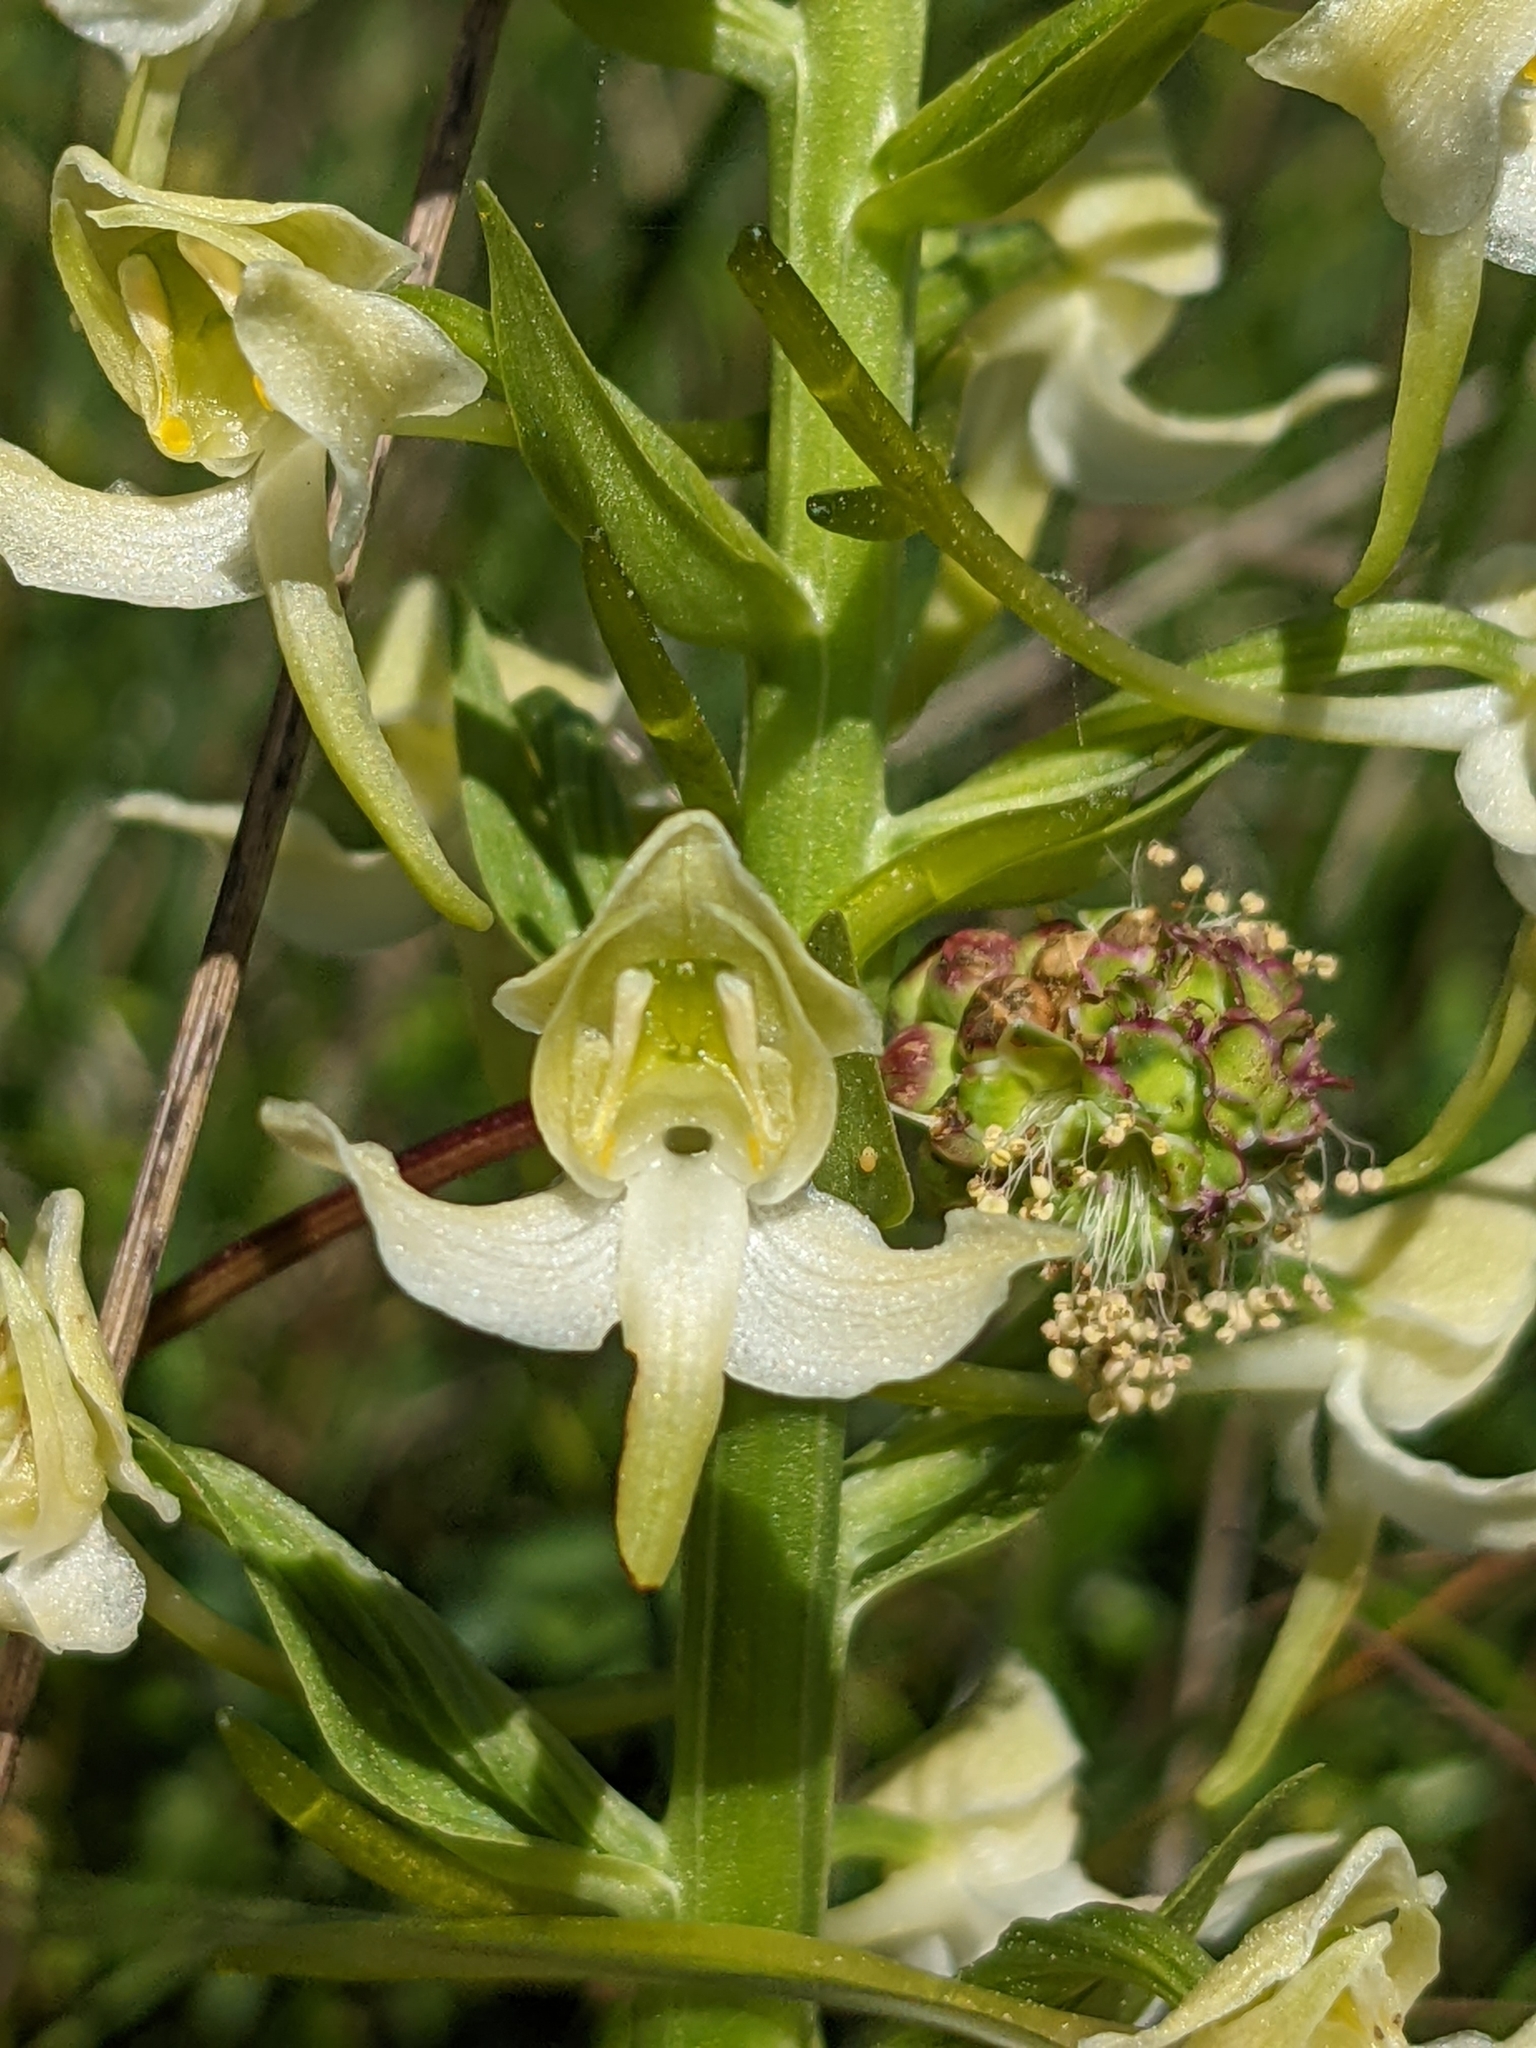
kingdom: Plantae
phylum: Tracheophyta
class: Liliopsida
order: Asparagales
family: Orchidaceae
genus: Platanthera
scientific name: Platanthera chlorantha
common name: Greater butterfly-orchid
